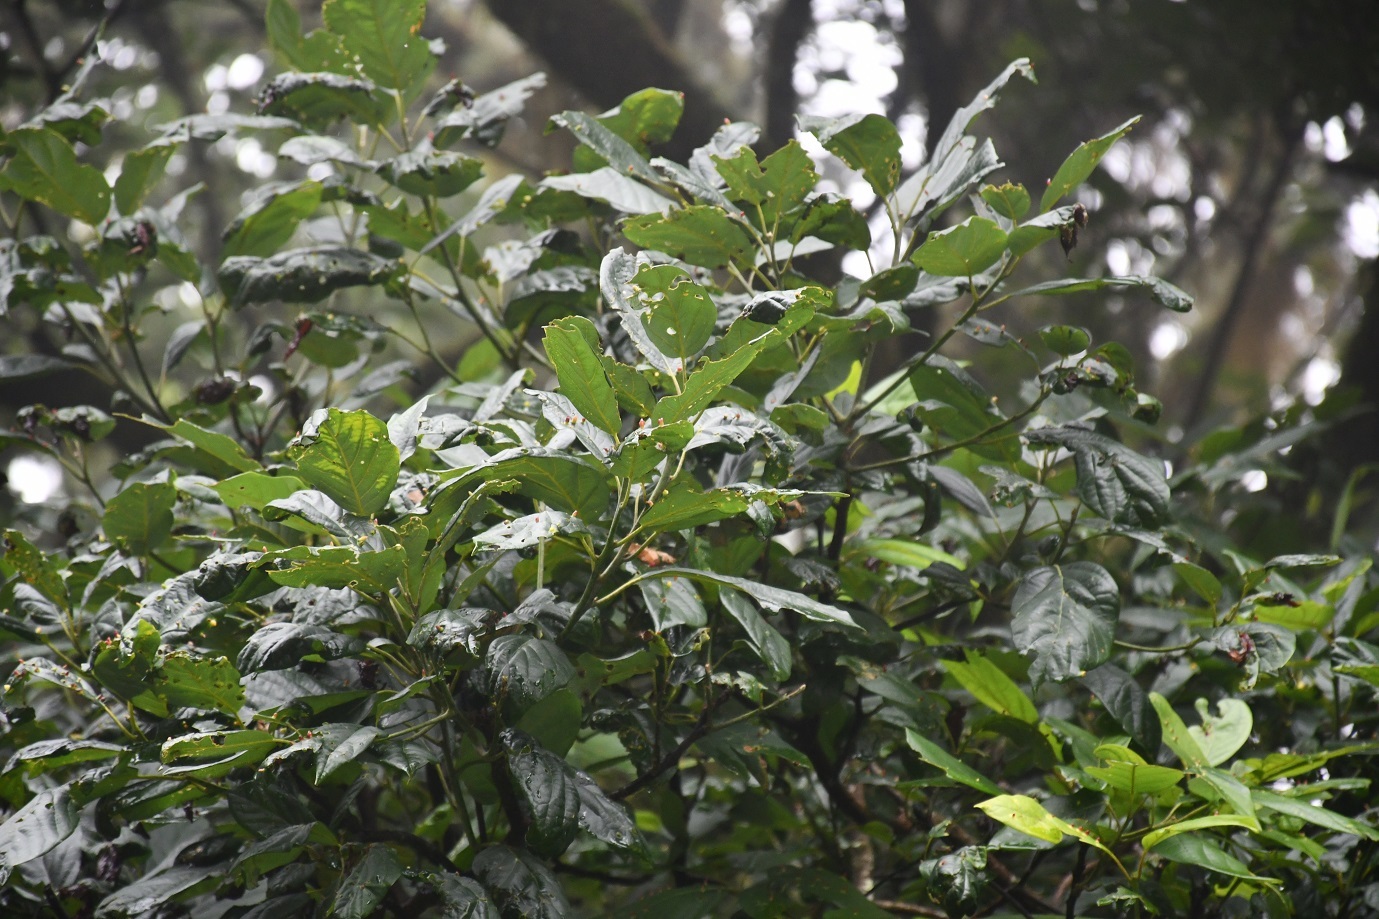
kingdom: Plantae
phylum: Tracheophyta
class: Magnoliopsida
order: Laurales
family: Lauraceae
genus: Persea
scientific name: Persea americana
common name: Avocado
